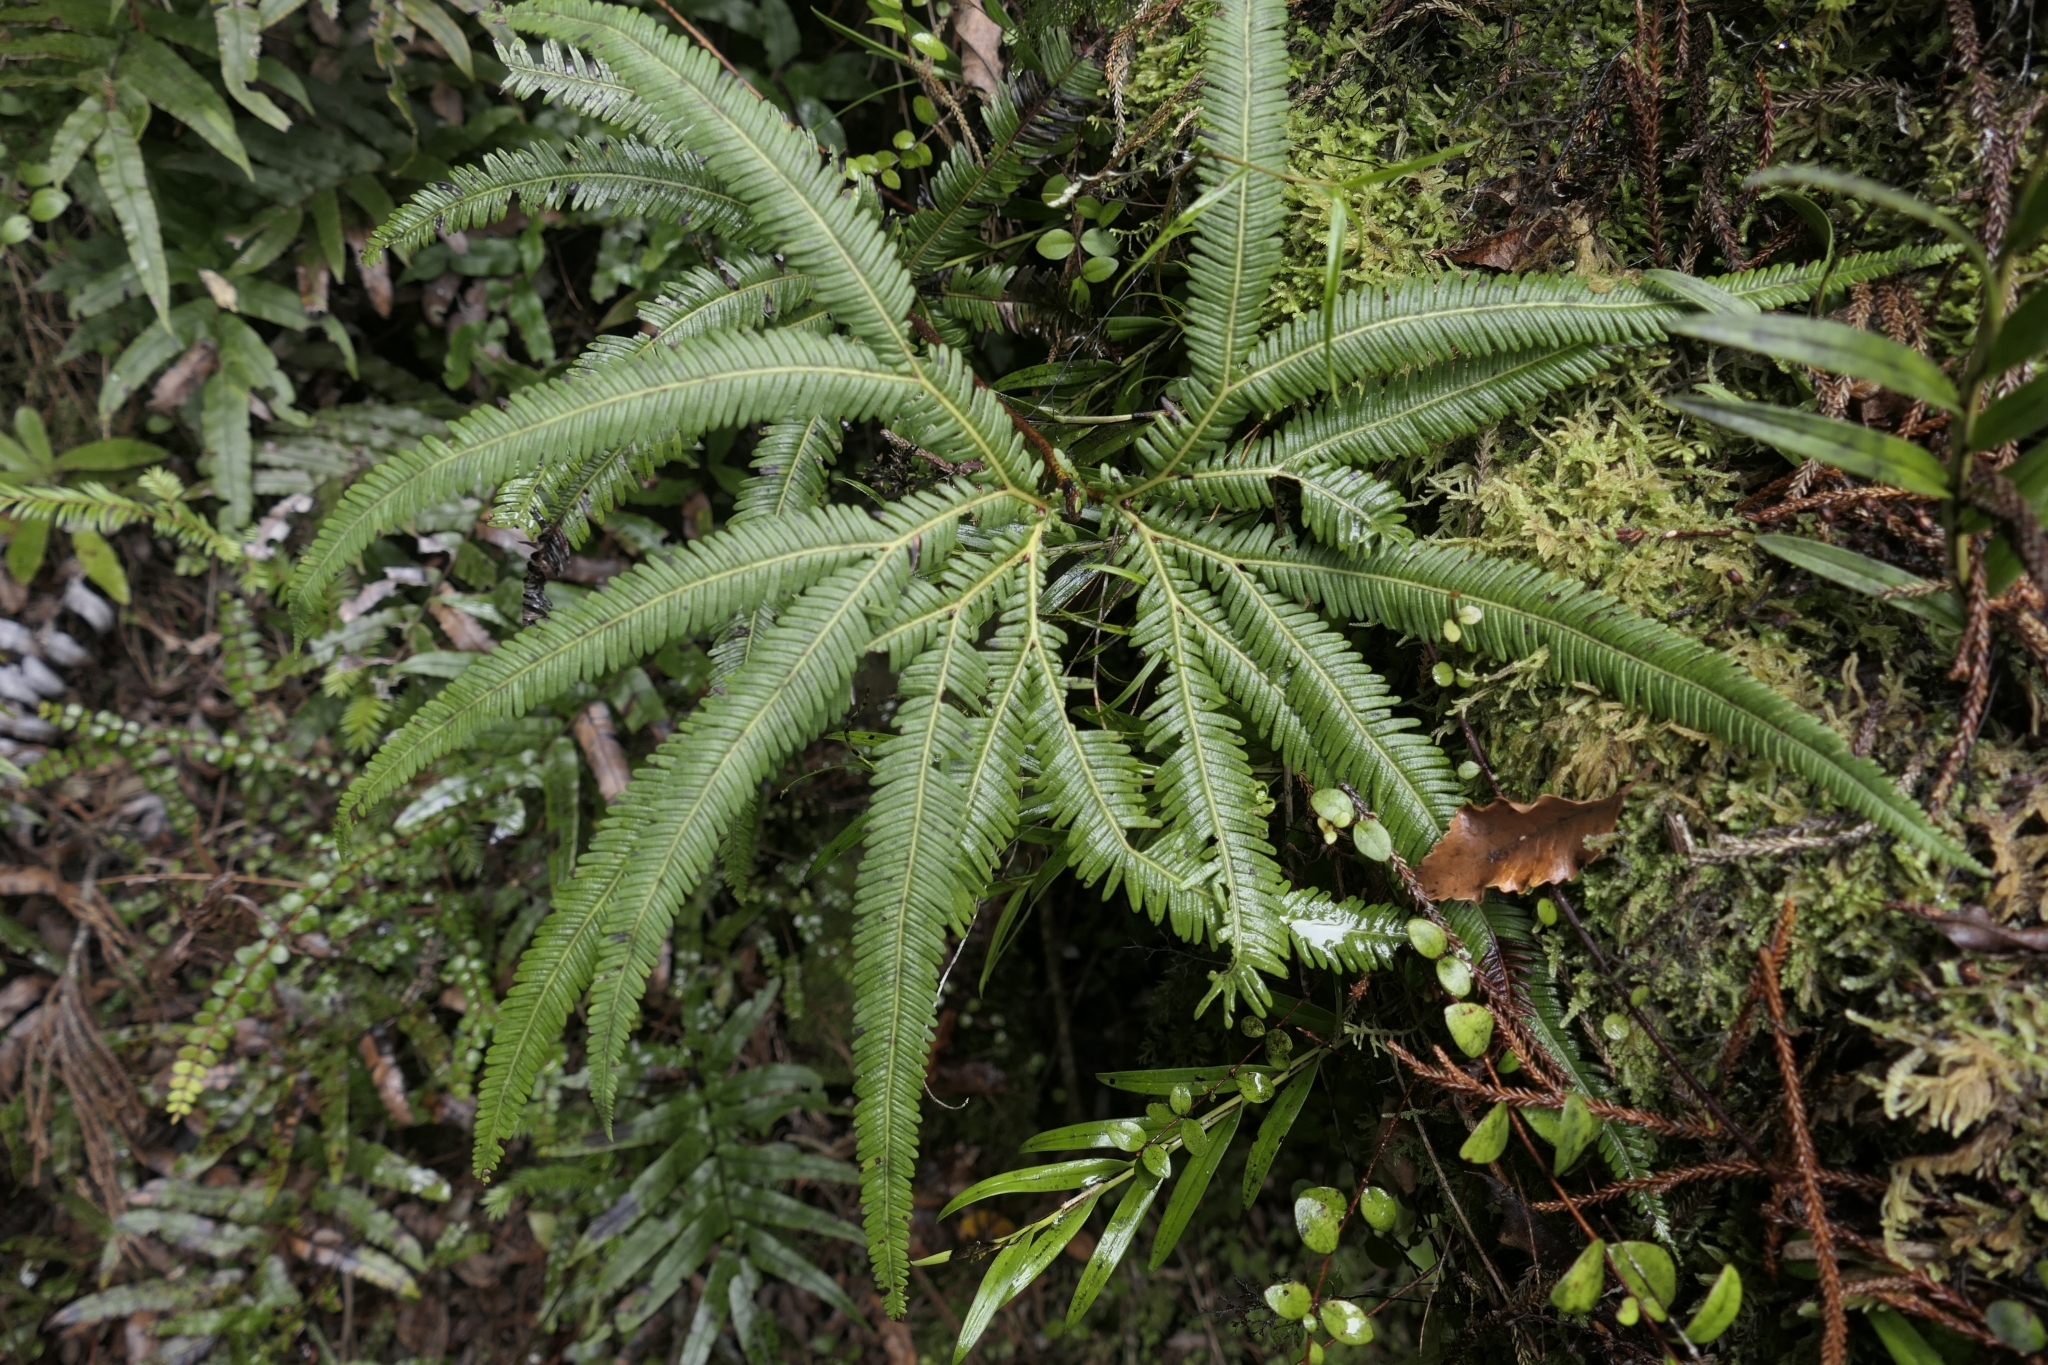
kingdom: Plantae
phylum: Tracheophyta
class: Polypodiopsida
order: Gleicheniales
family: Gleicheniaceae
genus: Sticherus
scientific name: Sticherus cunninghamii
